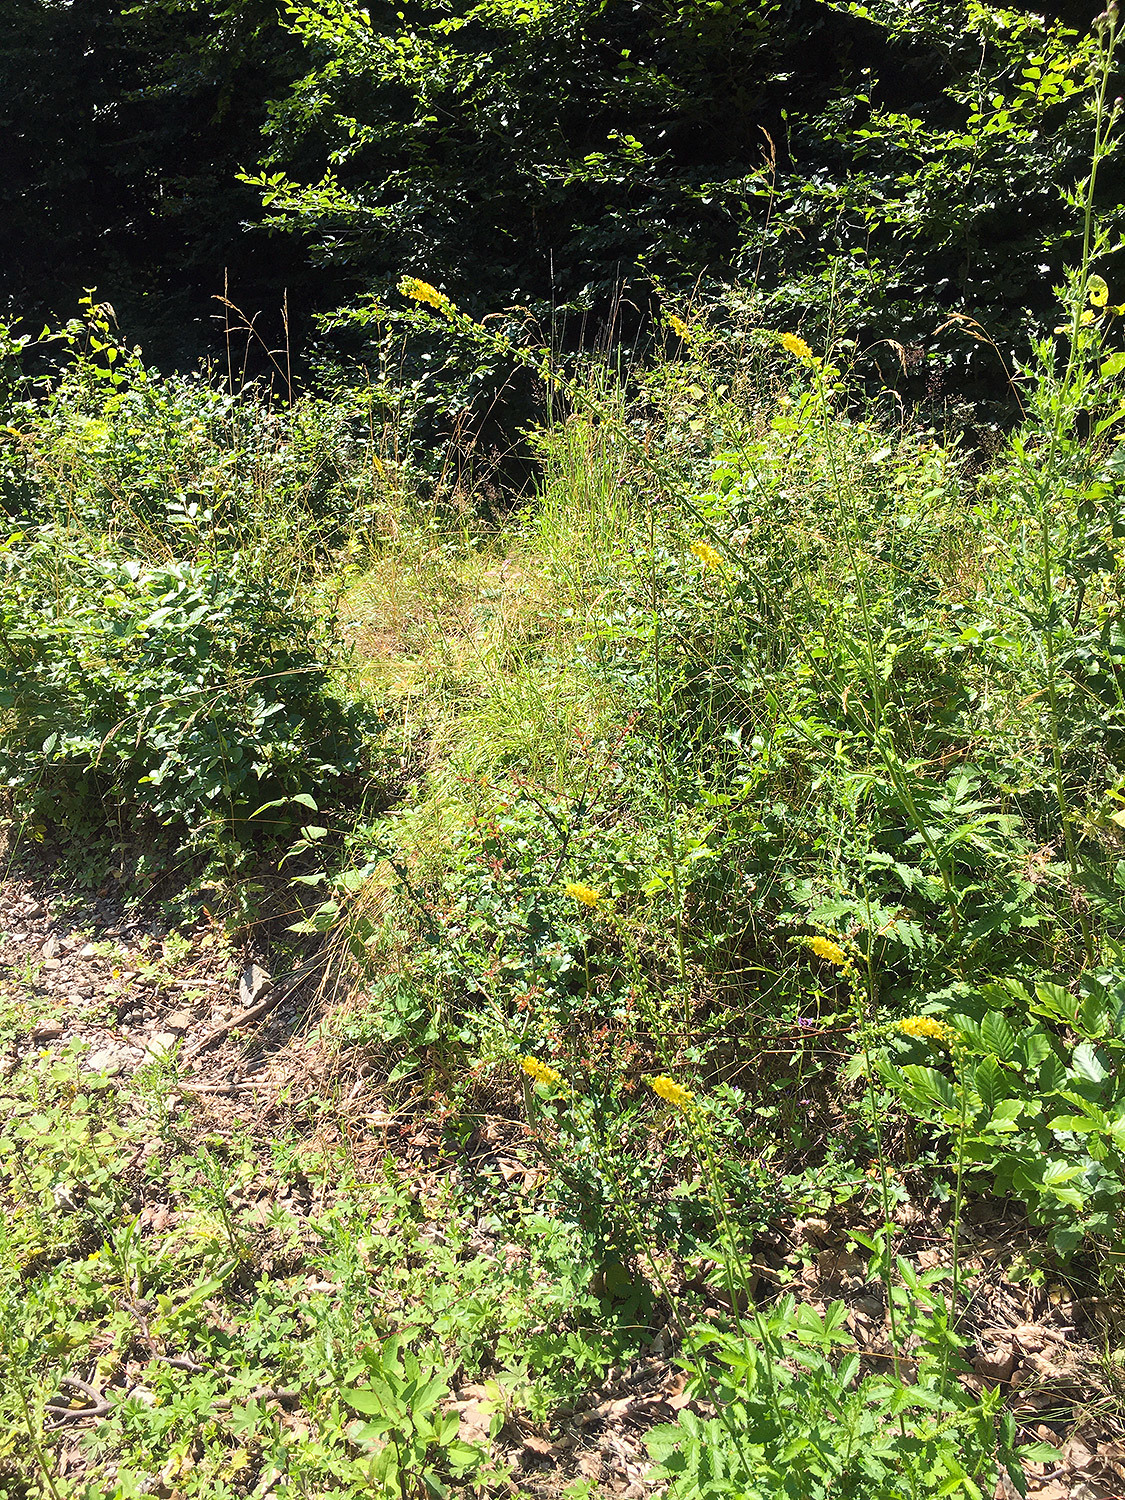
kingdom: Plantae
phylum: Tracheophyta
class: Magnoliopsida
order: Rosales
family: Rosaceae
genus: Agrimonia
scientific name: Agrimonia eupatoria
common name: Agrimony
